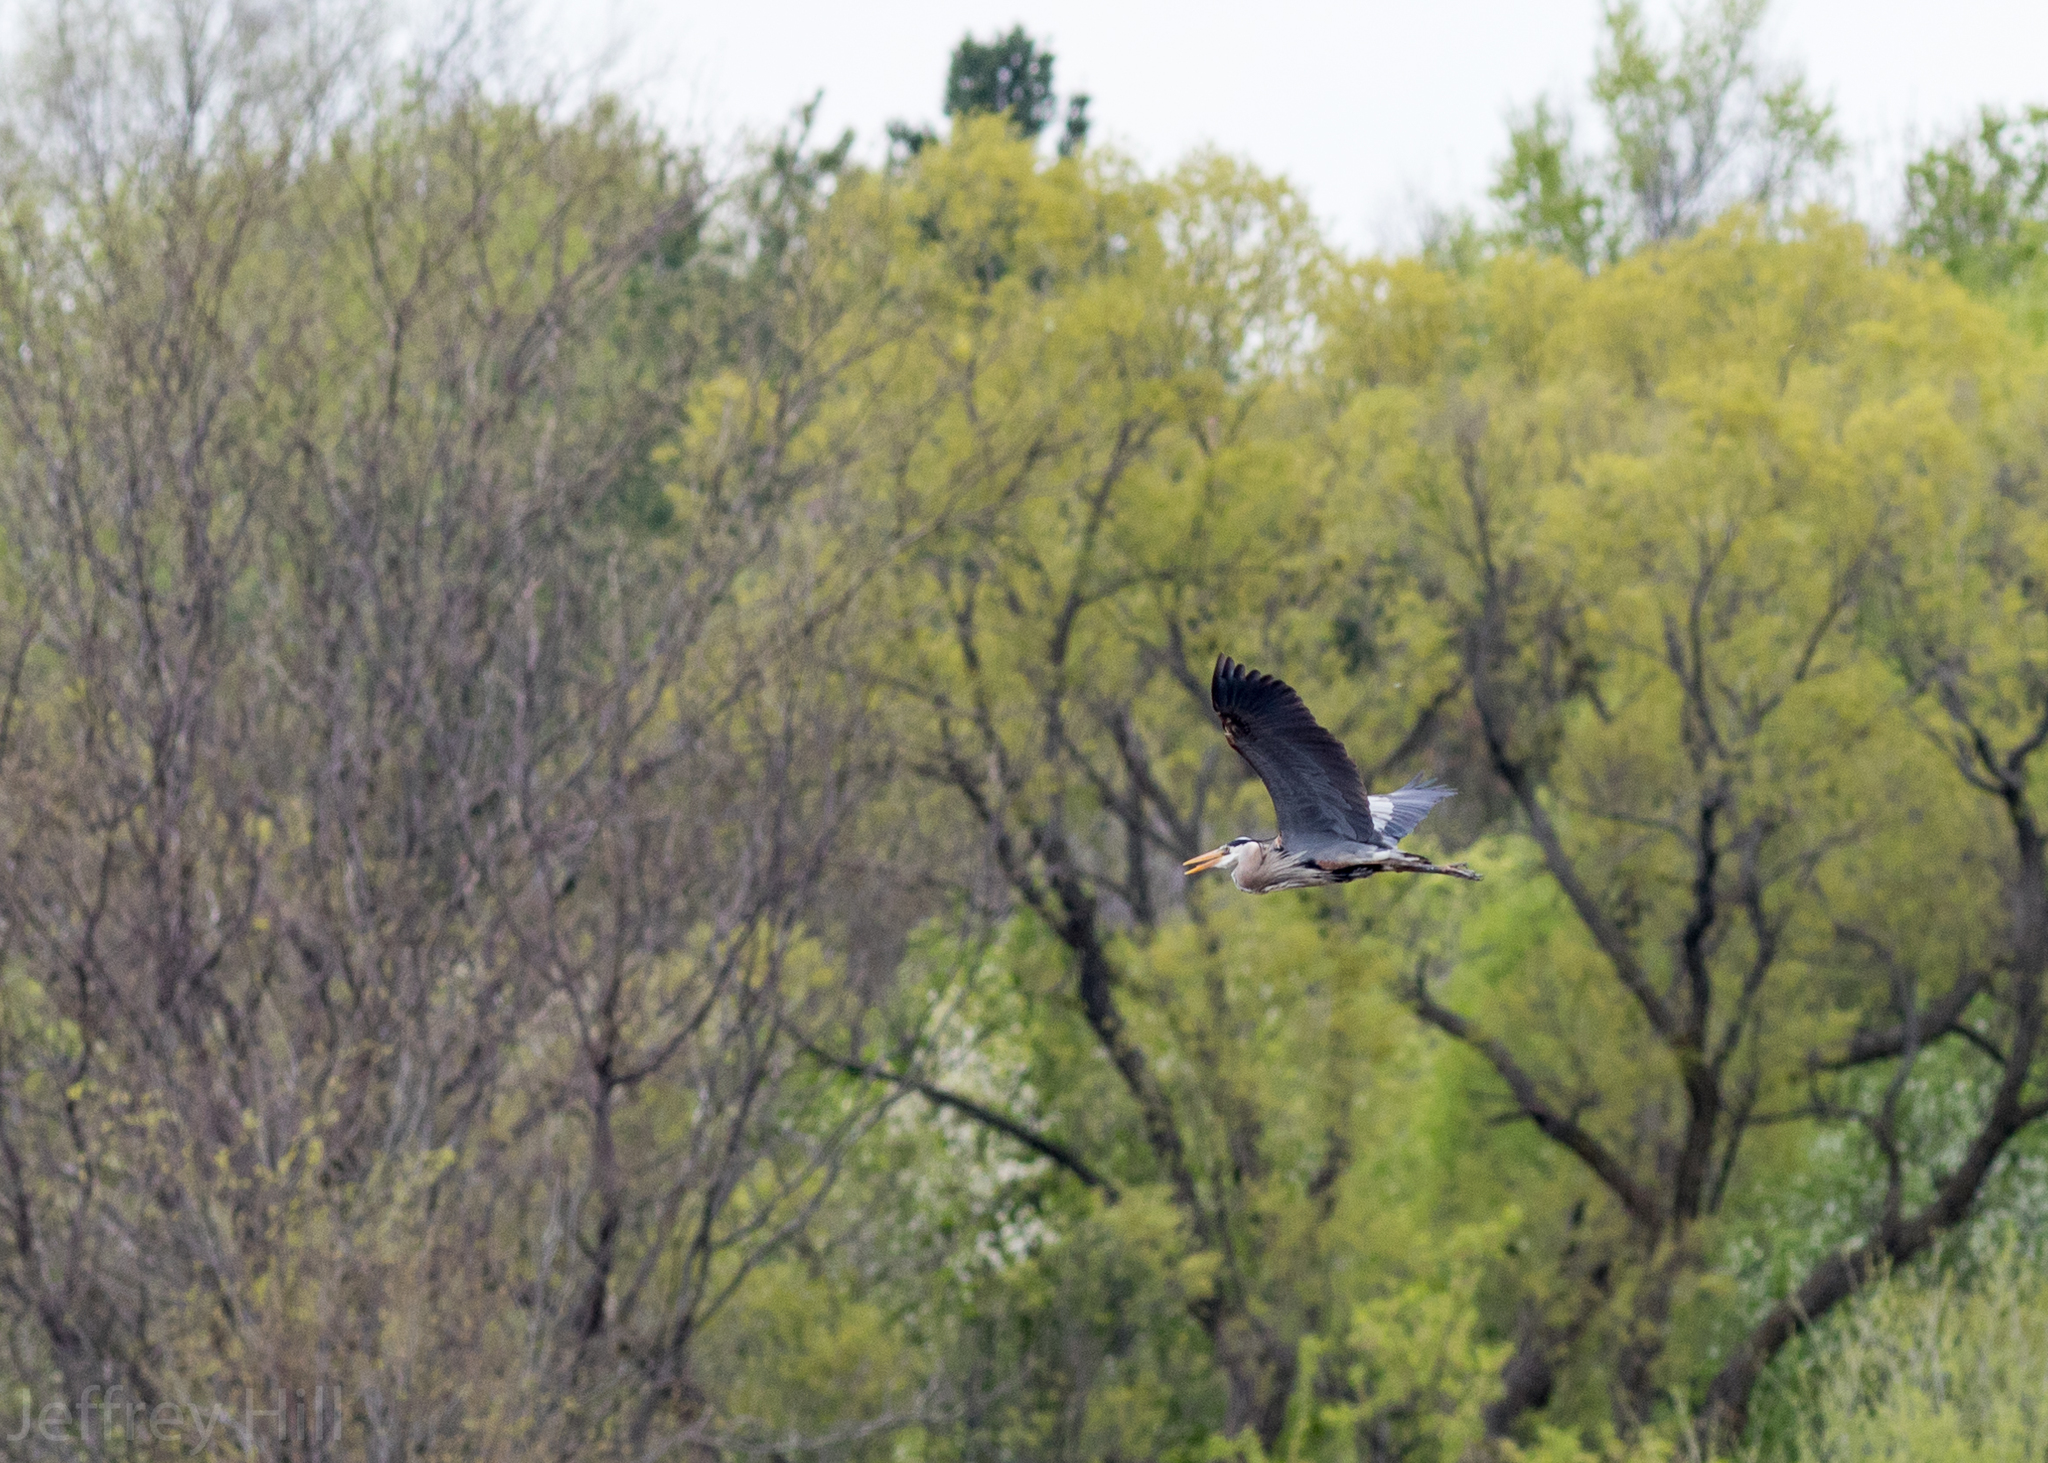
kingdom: Animalia
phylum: Chordata
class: Aves
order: Pelecaniformes
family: Ardeidae
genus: Ardea
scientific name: Ardea herodias
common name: Great blue heron
